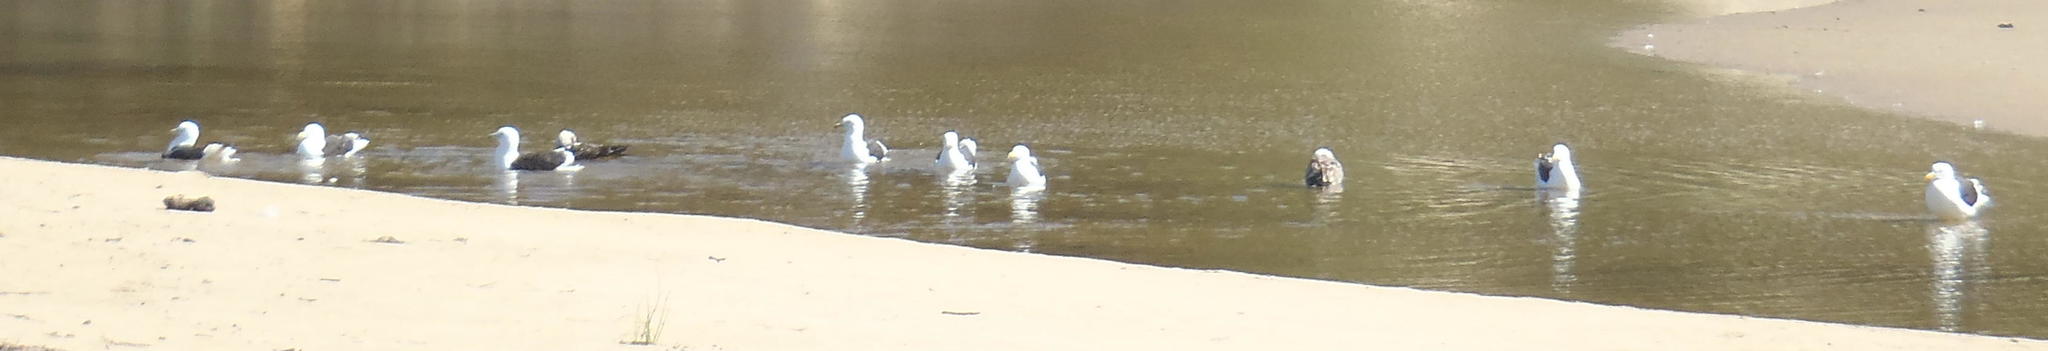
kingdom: Animalia
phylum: Chordata
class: Aves
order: Charadriiformes
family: Laridae
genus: Larus
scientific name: Larus dominicanus
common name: Kelp gull
